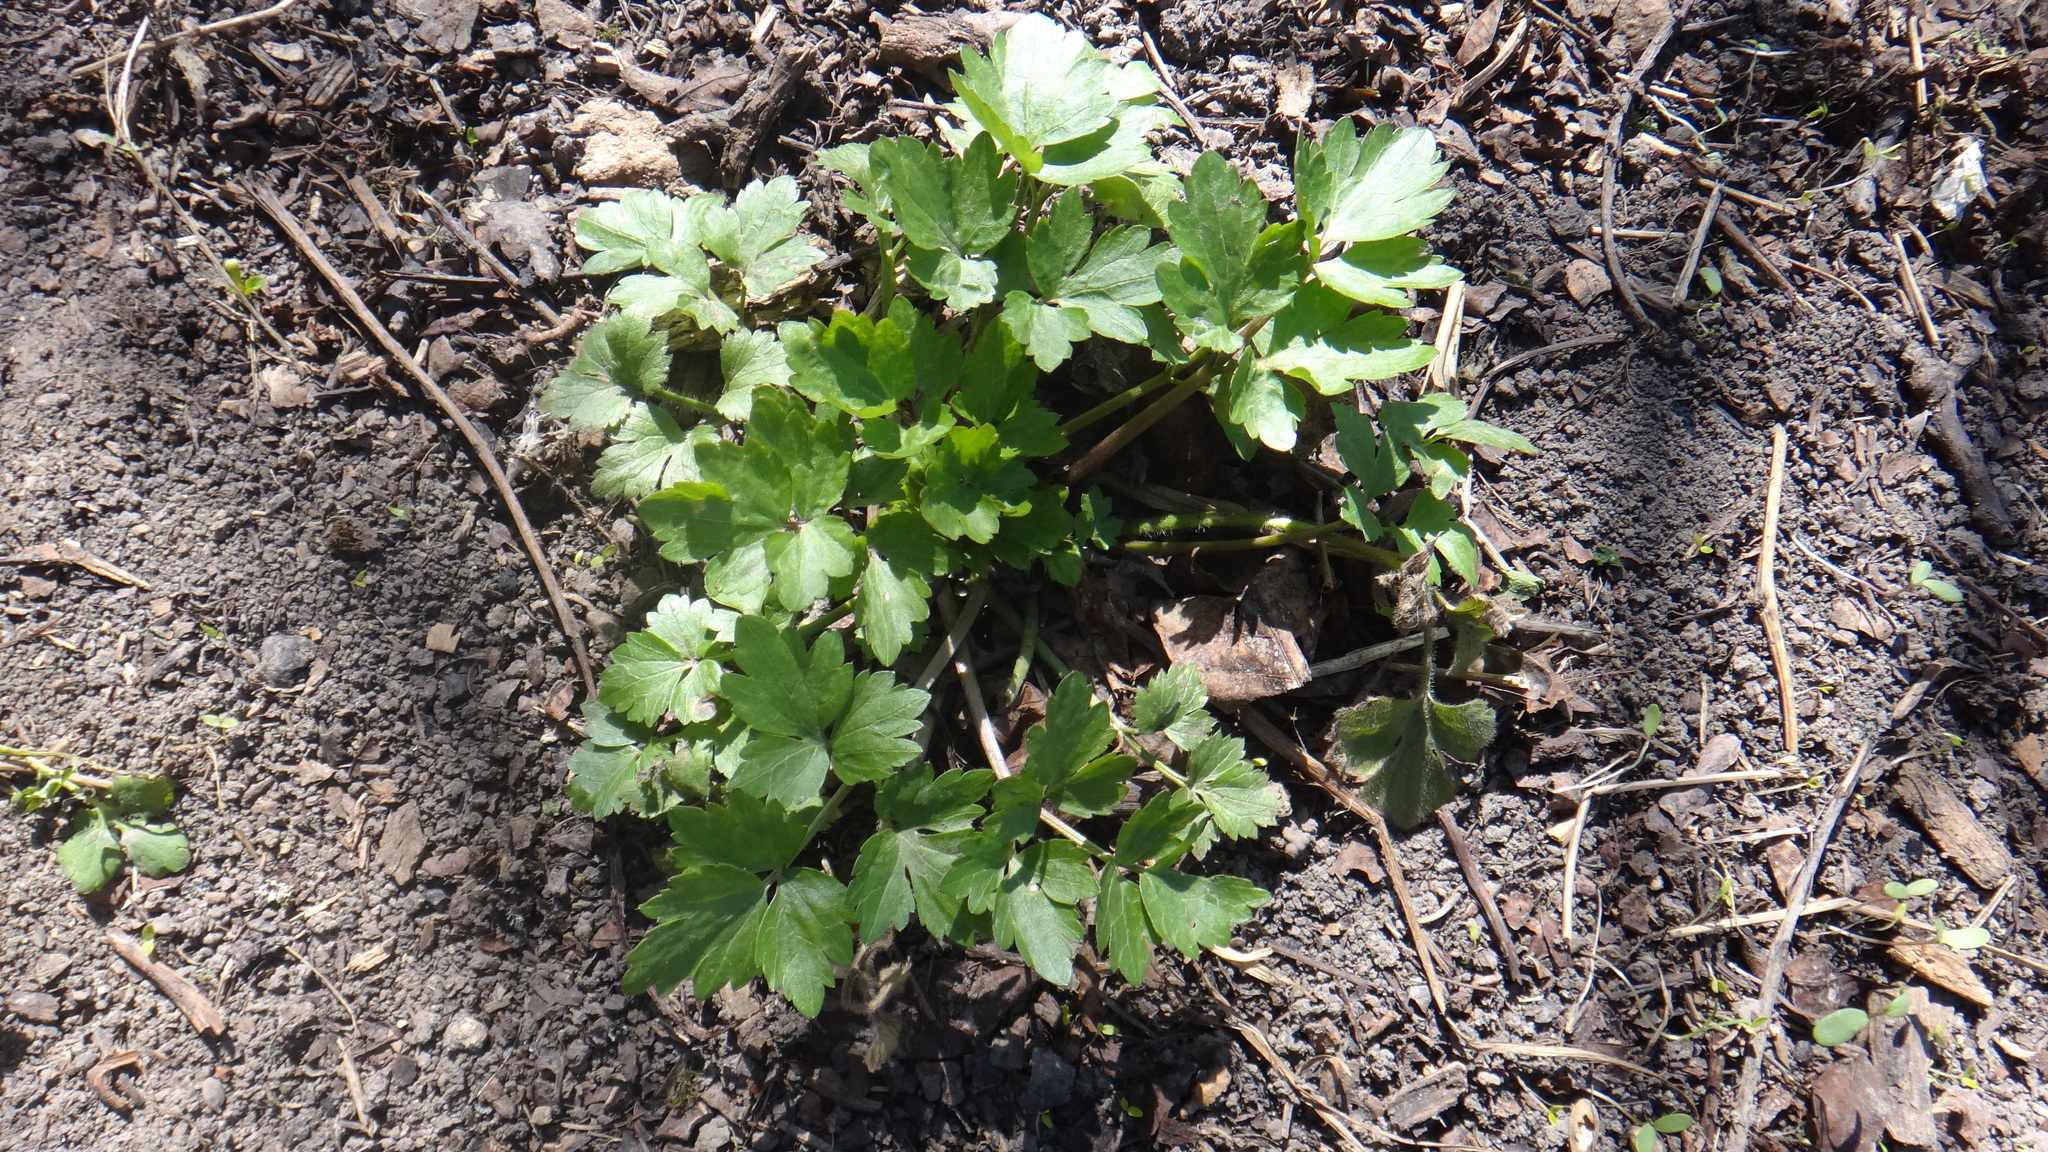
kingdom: Plantae
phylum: Tracheophyta
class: Magnoliopsida
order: Ranunculales
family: Ranunculaceae
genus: Ranunculus
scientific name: Ranunculus repens
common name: Creeping buttercup
